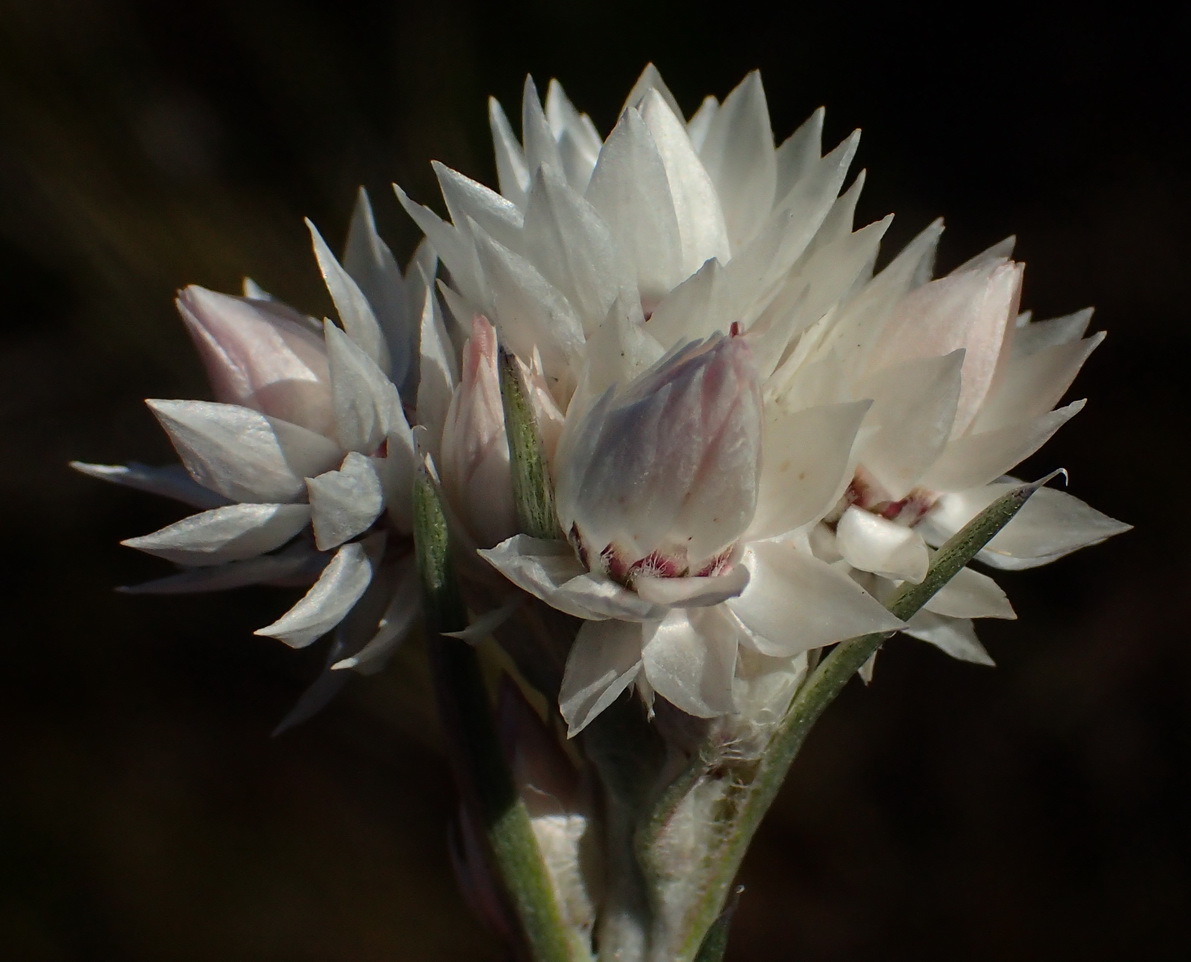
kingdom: Plantae
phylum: Tracheophyta
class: Magnoliopsida
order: Asterales
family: Asteraceae
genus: Achyranthemum
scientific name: Achyranthemum paniculatum
